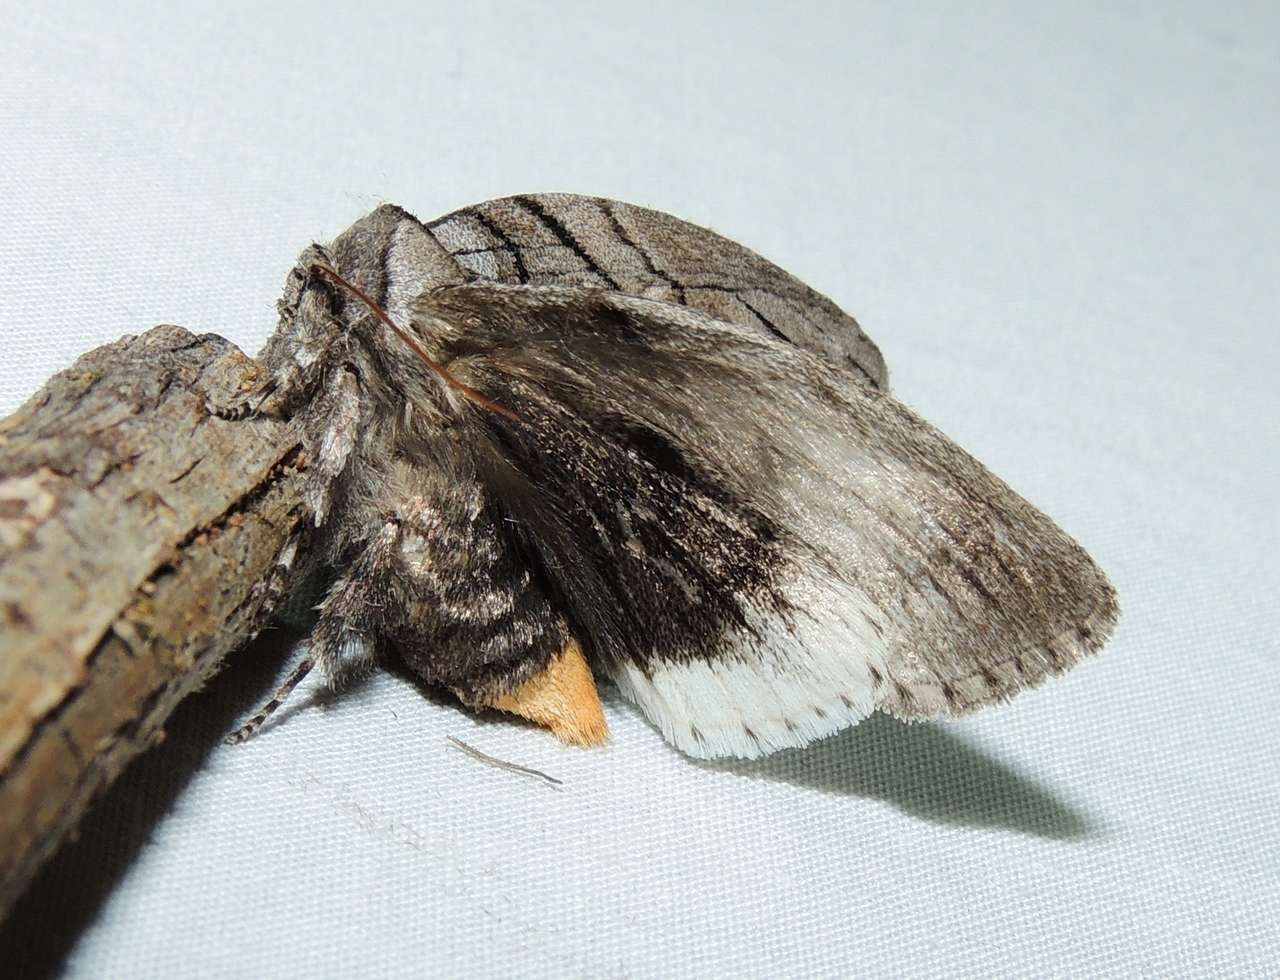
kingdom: Animalia
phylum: Arthropoda
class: Insecta
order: Lepidoptera
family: Oenosandridae
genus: Discophlebia
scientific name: Discophlebia catocalina
